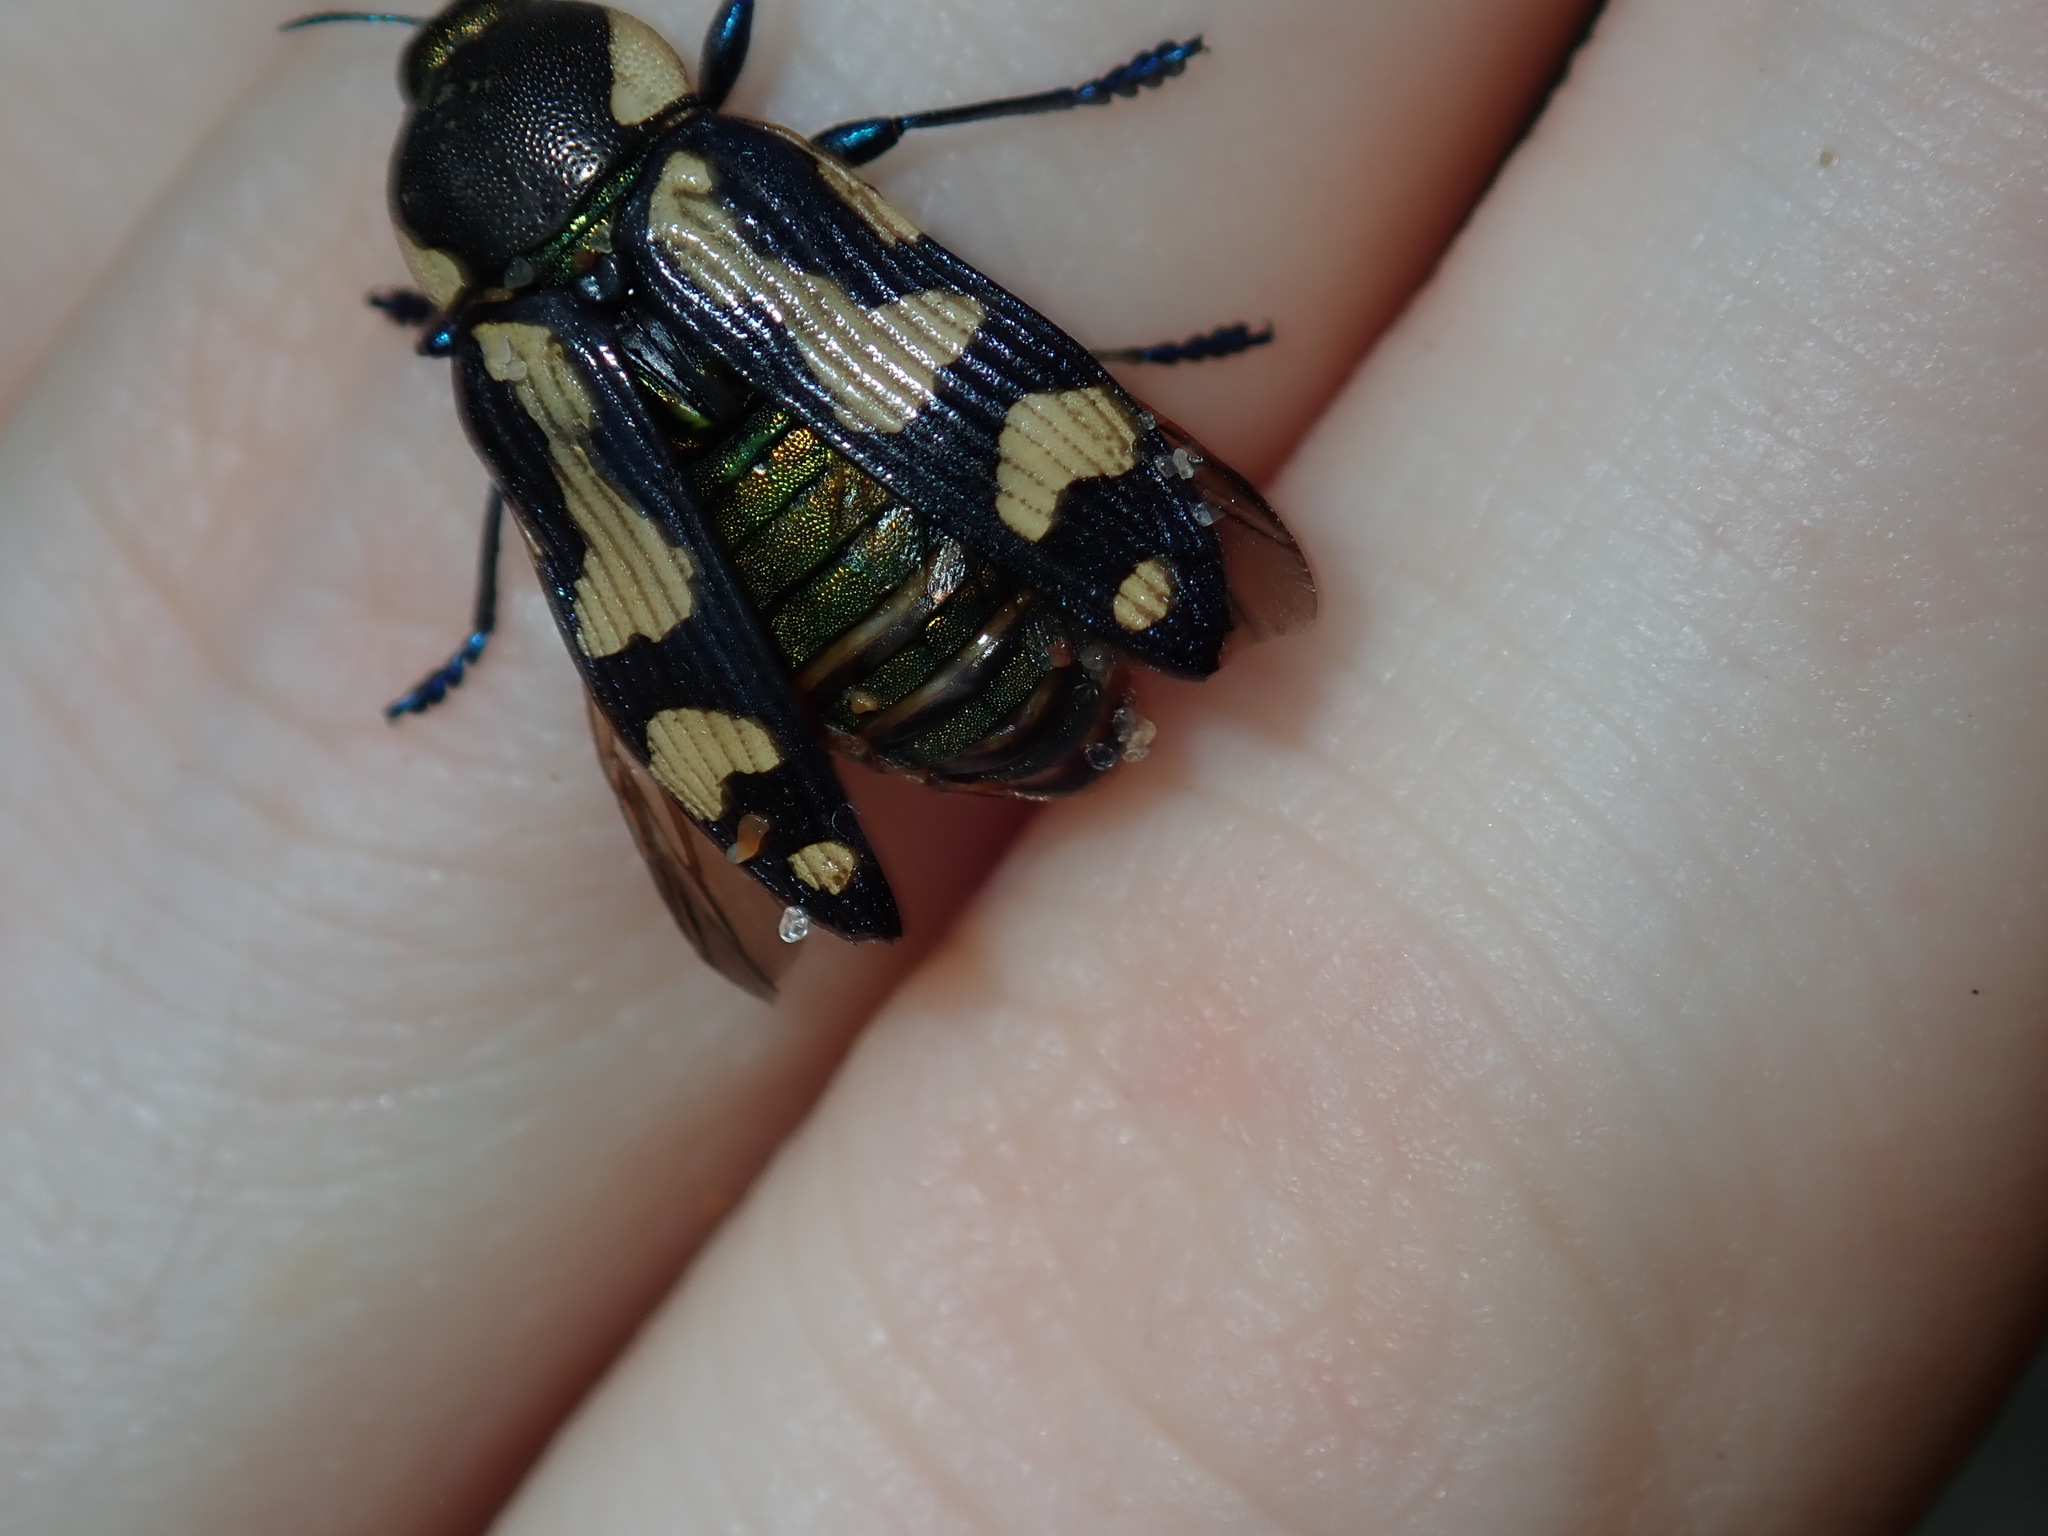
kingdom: Animalia
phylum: Arthropoda
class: Insecta
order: Coleoptera
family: Buprestidae
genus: Castiarina
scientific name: Castiarina octospilota
